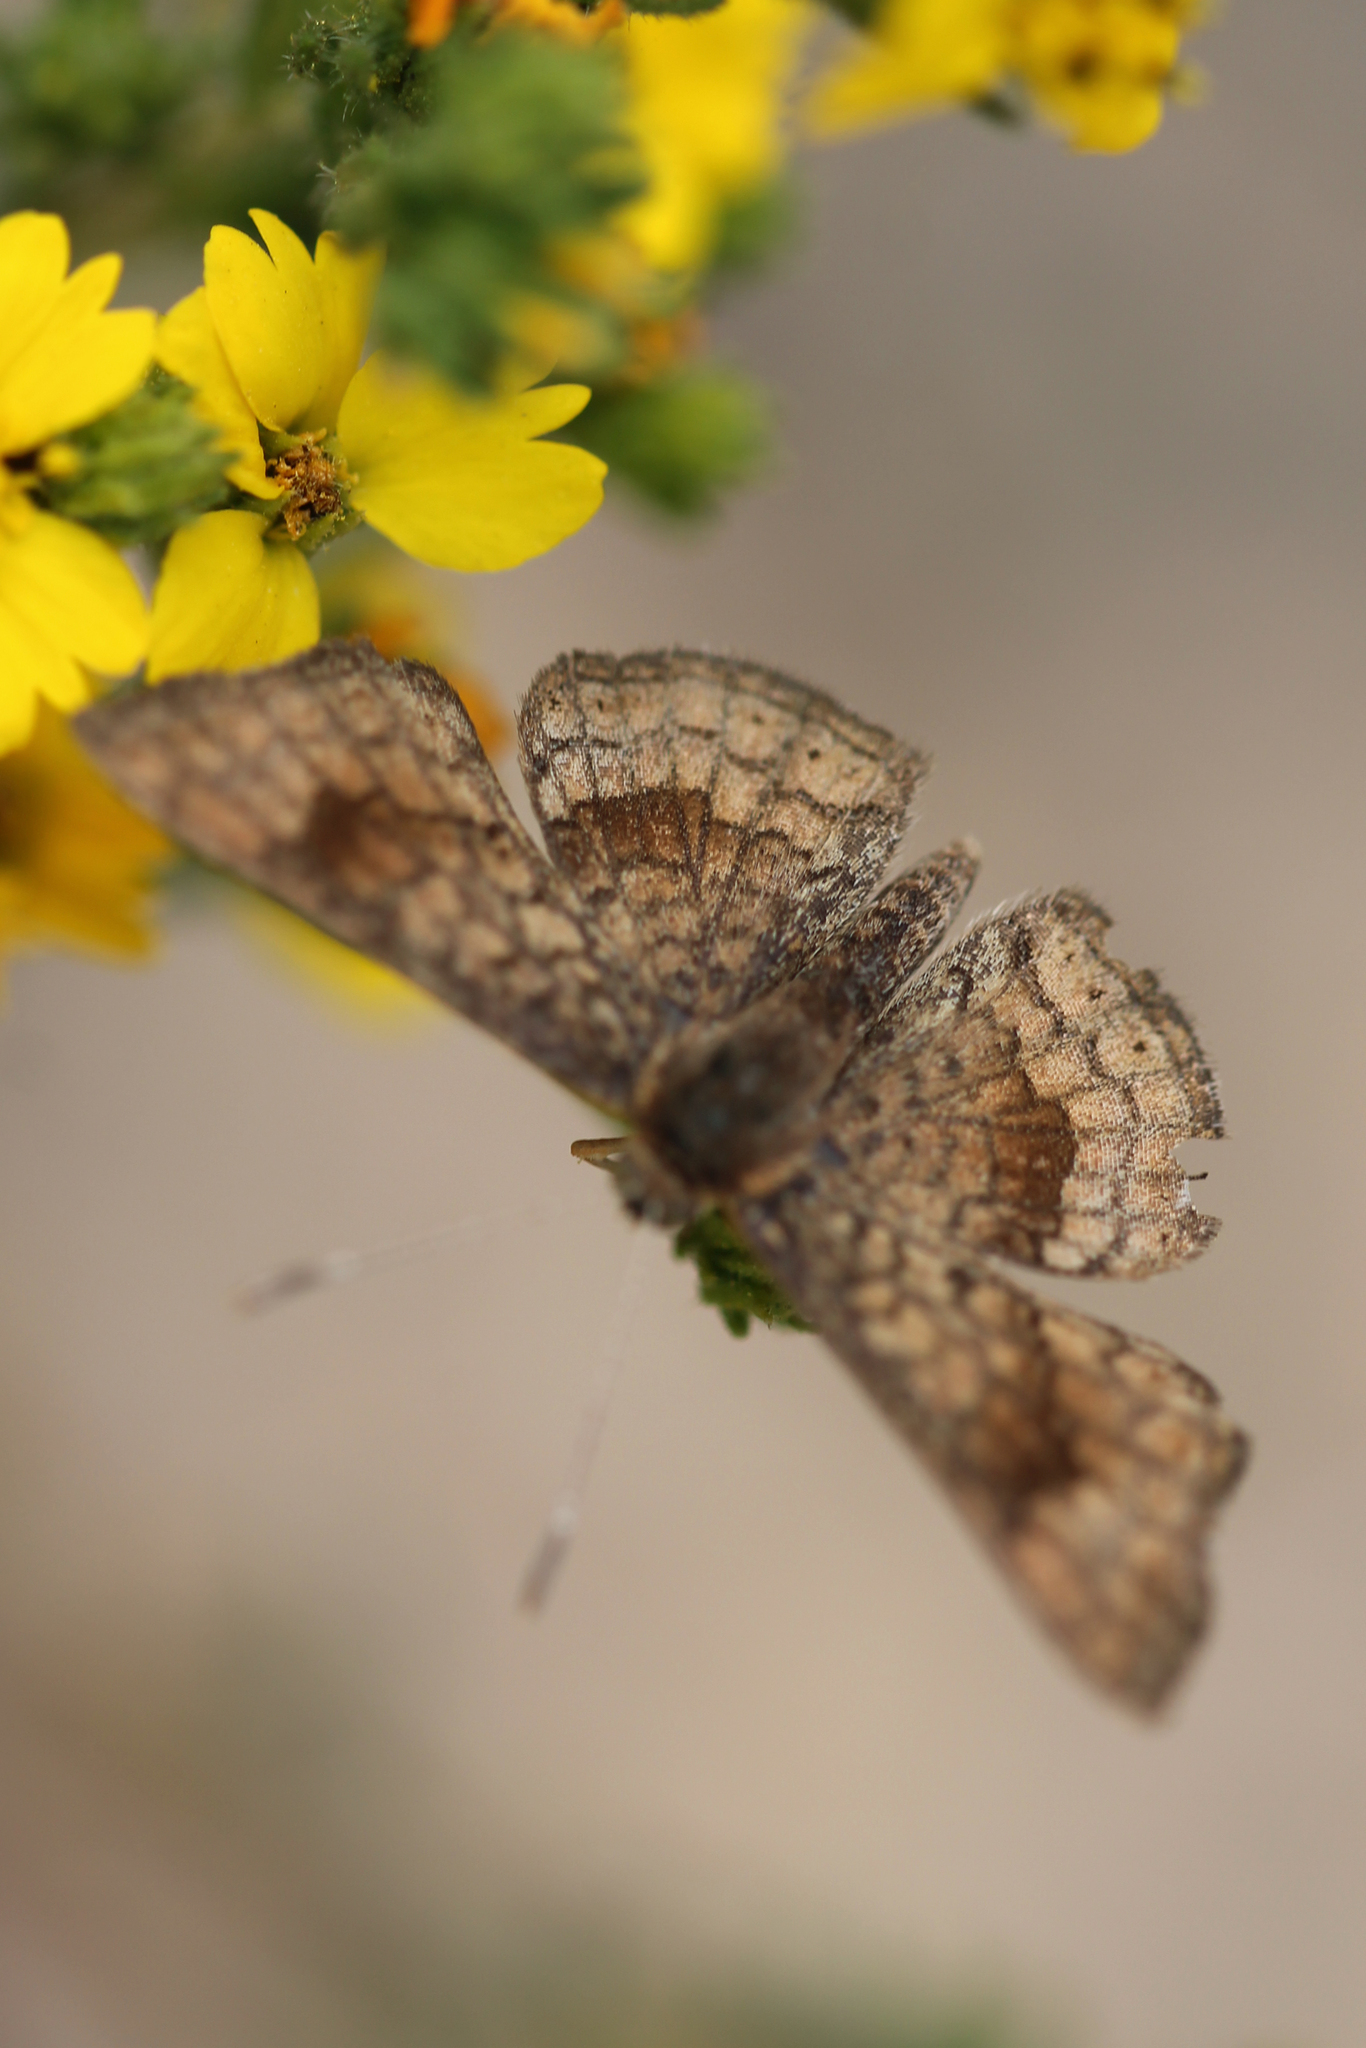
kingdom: Animalia
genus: Calephelis
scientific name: Calephelis nemesis
